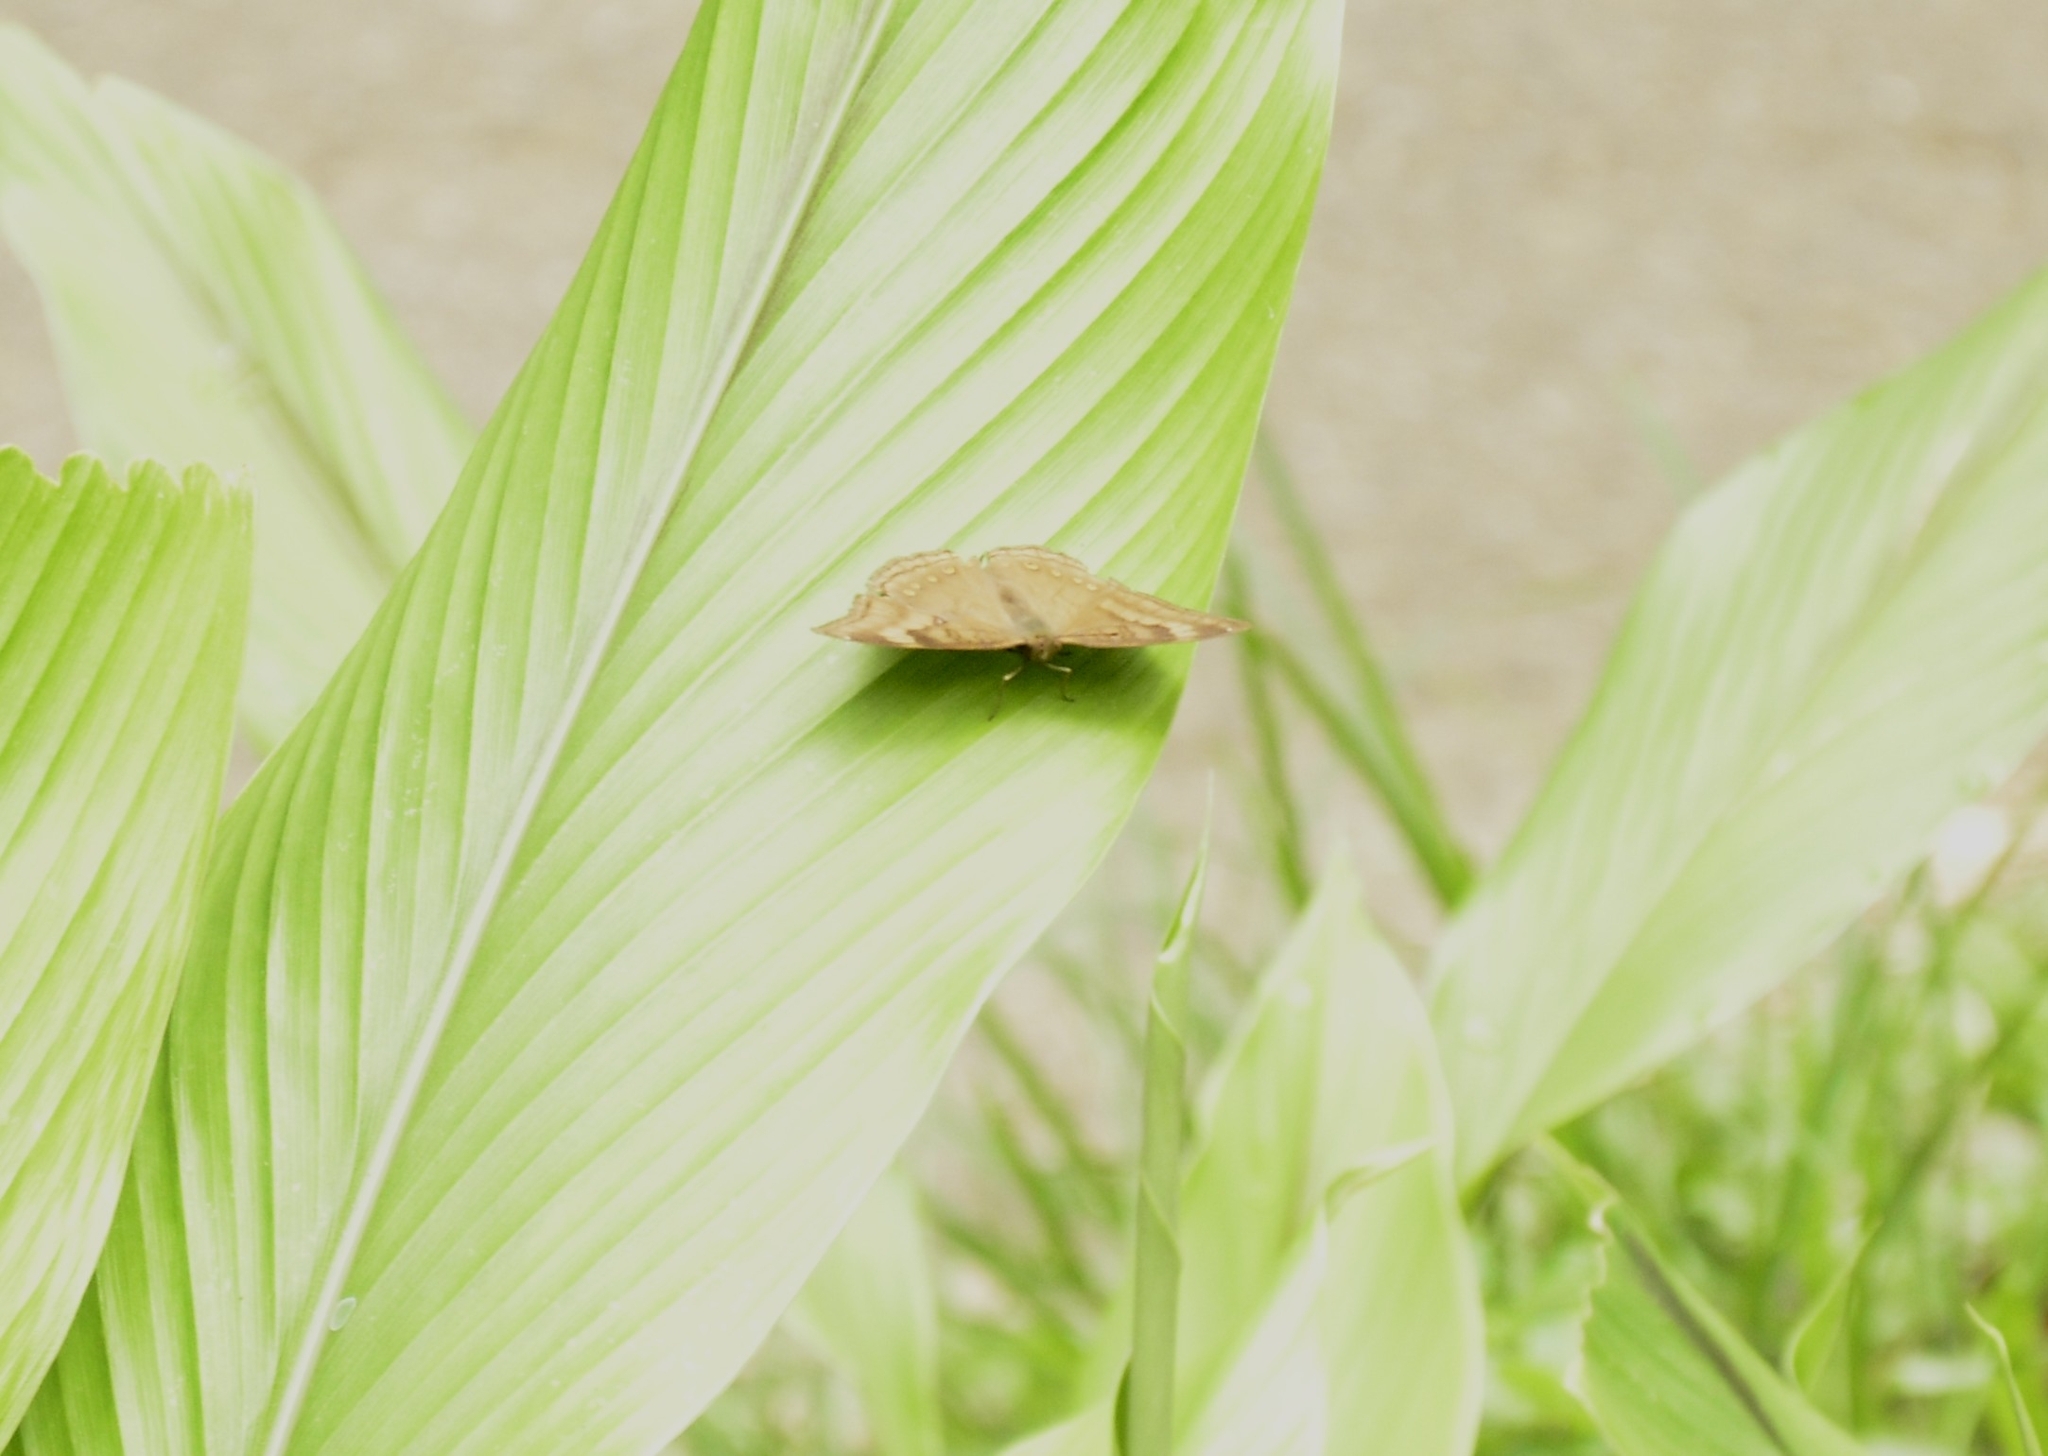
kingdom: Animalia
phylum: Arthropoda
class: Insecta
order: Lepidoptera
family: Nymphalidae
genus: Junonia
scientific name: Junonia iphita
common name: Chocolate pansy
